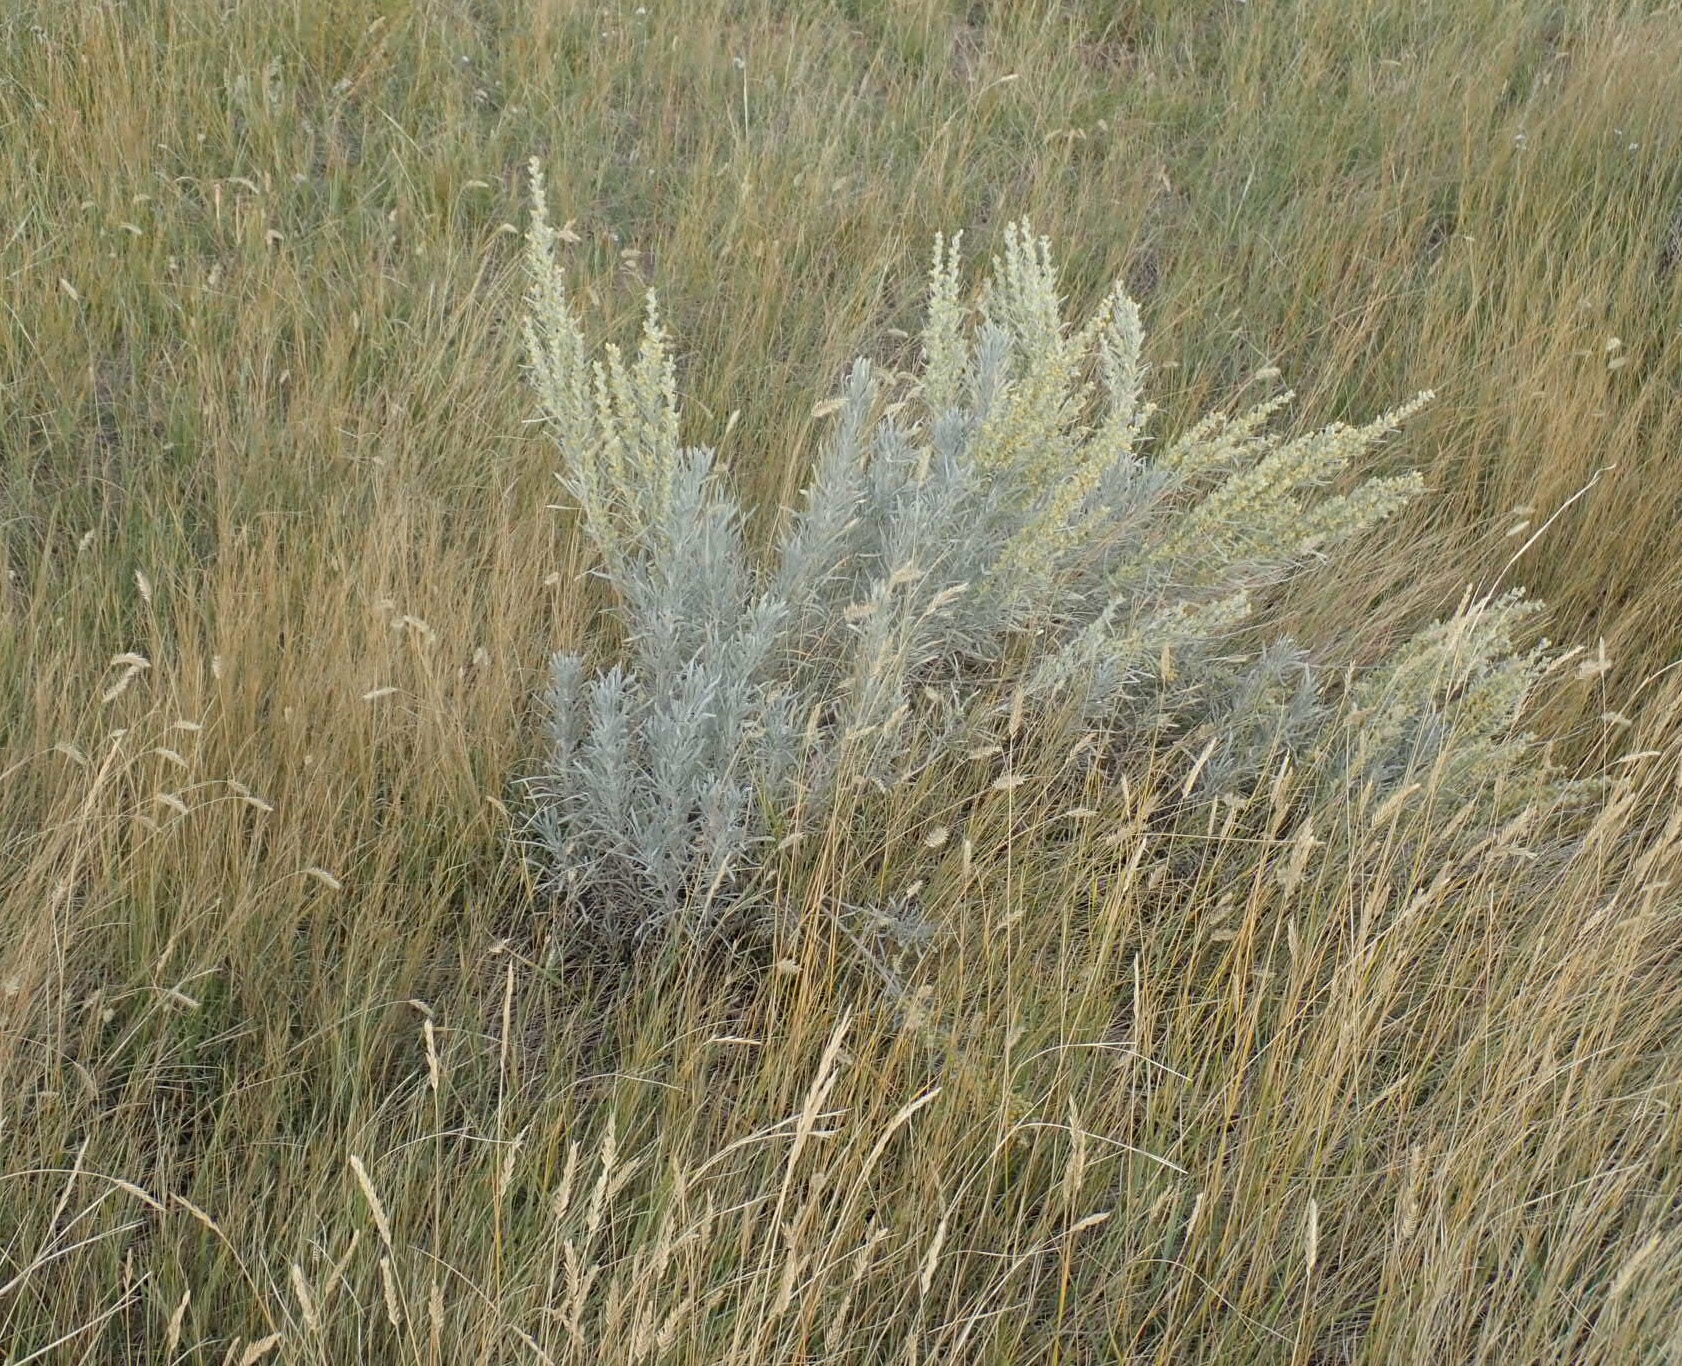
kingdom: Plantae
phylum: Tracheophyta
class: Magnoliopsida
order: Asterales
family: Asteraceae
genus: Artemisia
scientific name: Artemisia cana
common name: Silver sagebrush
